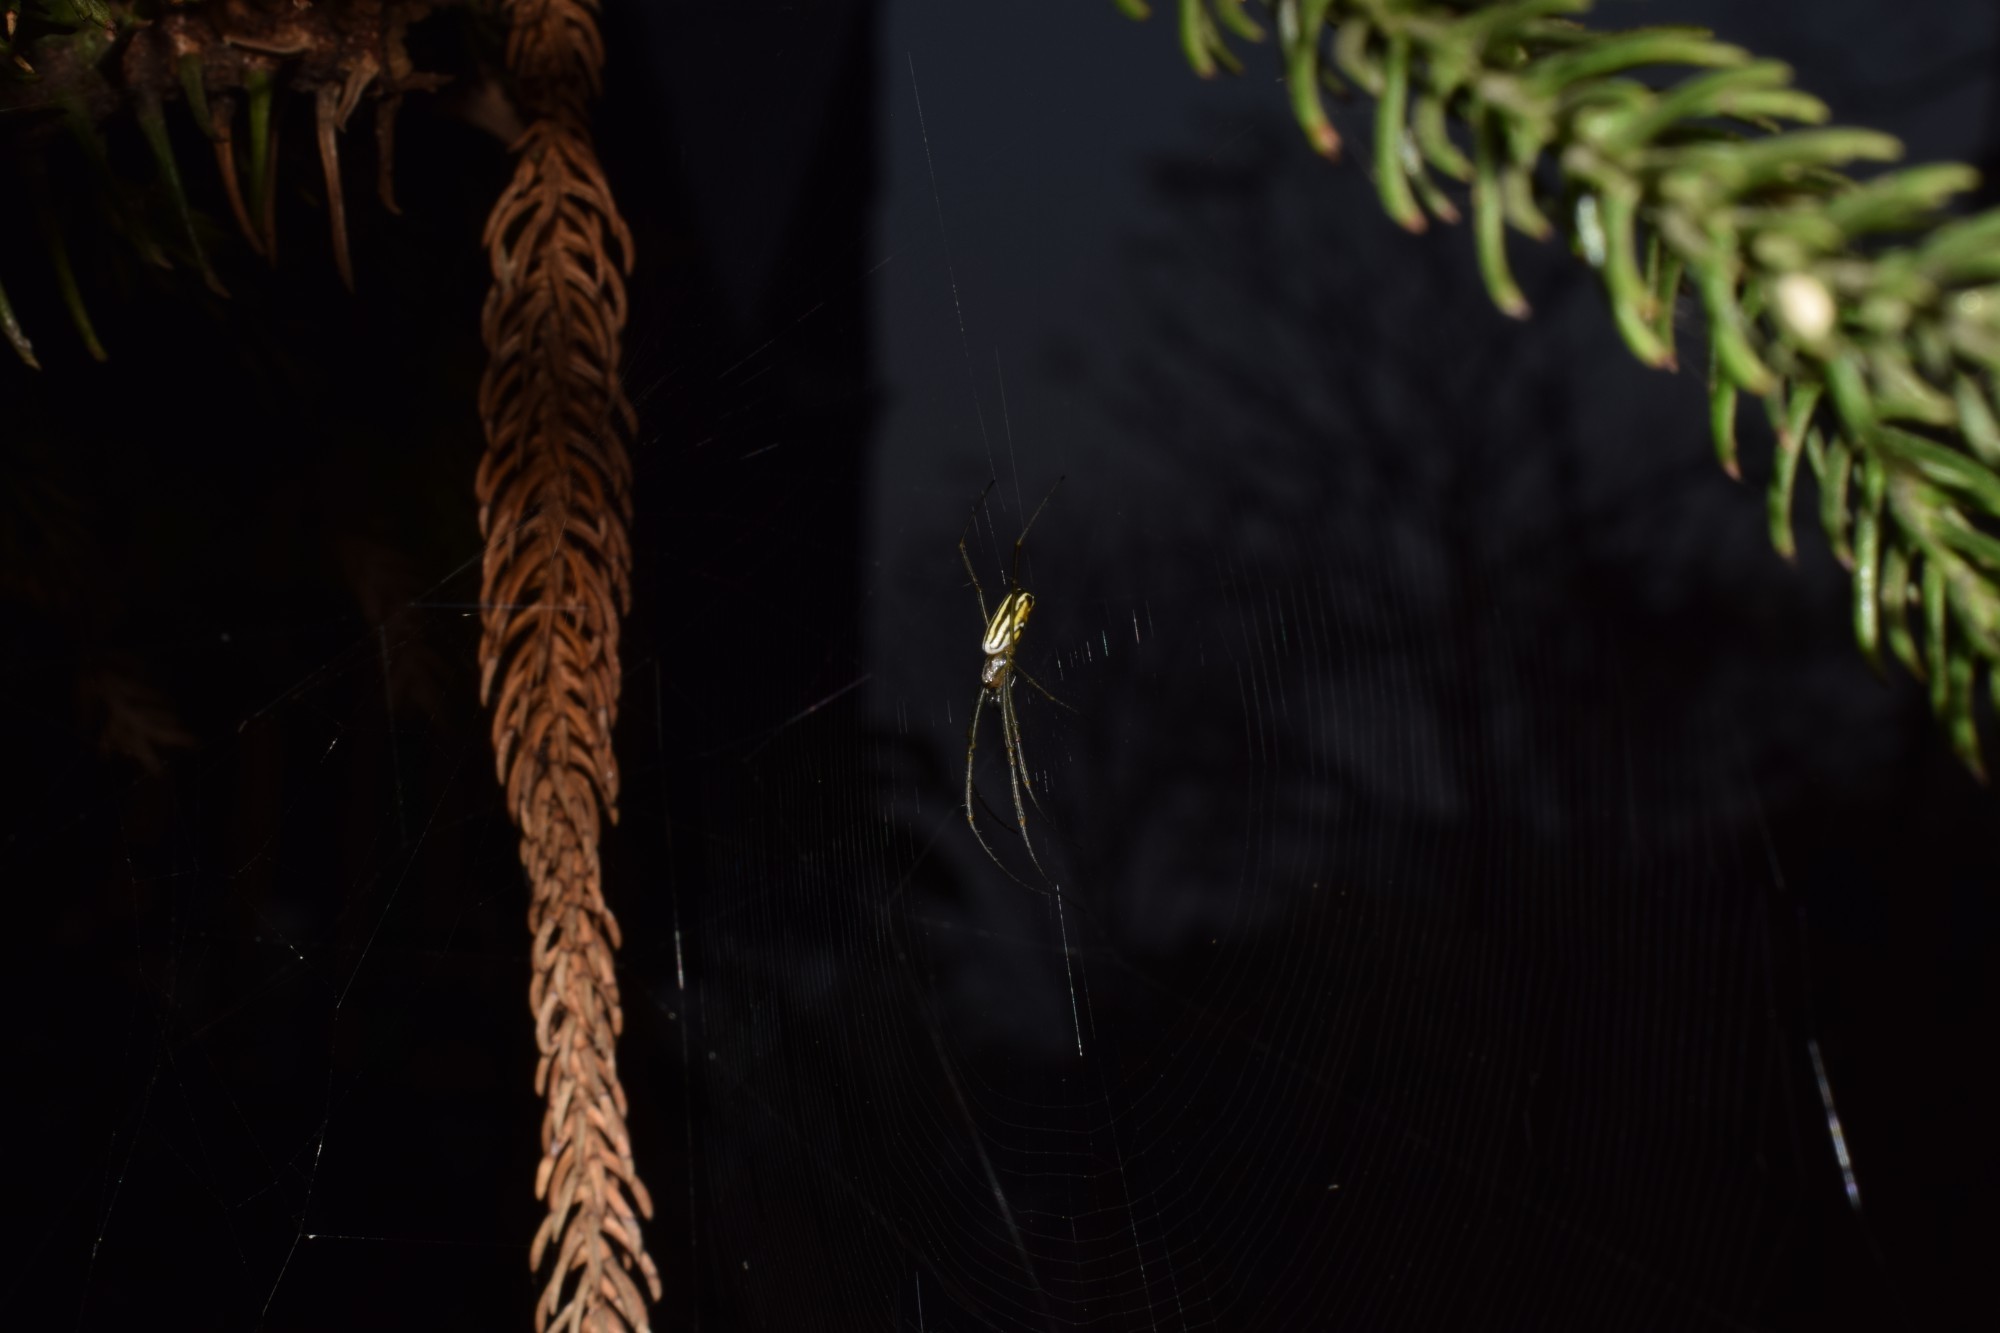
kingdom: Animalia
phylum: Arthropoda
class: Arachnida
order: Araneae
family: Araneidae
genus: Nephila
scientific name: Nephila pilipes
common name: Giant golden orb weaver
